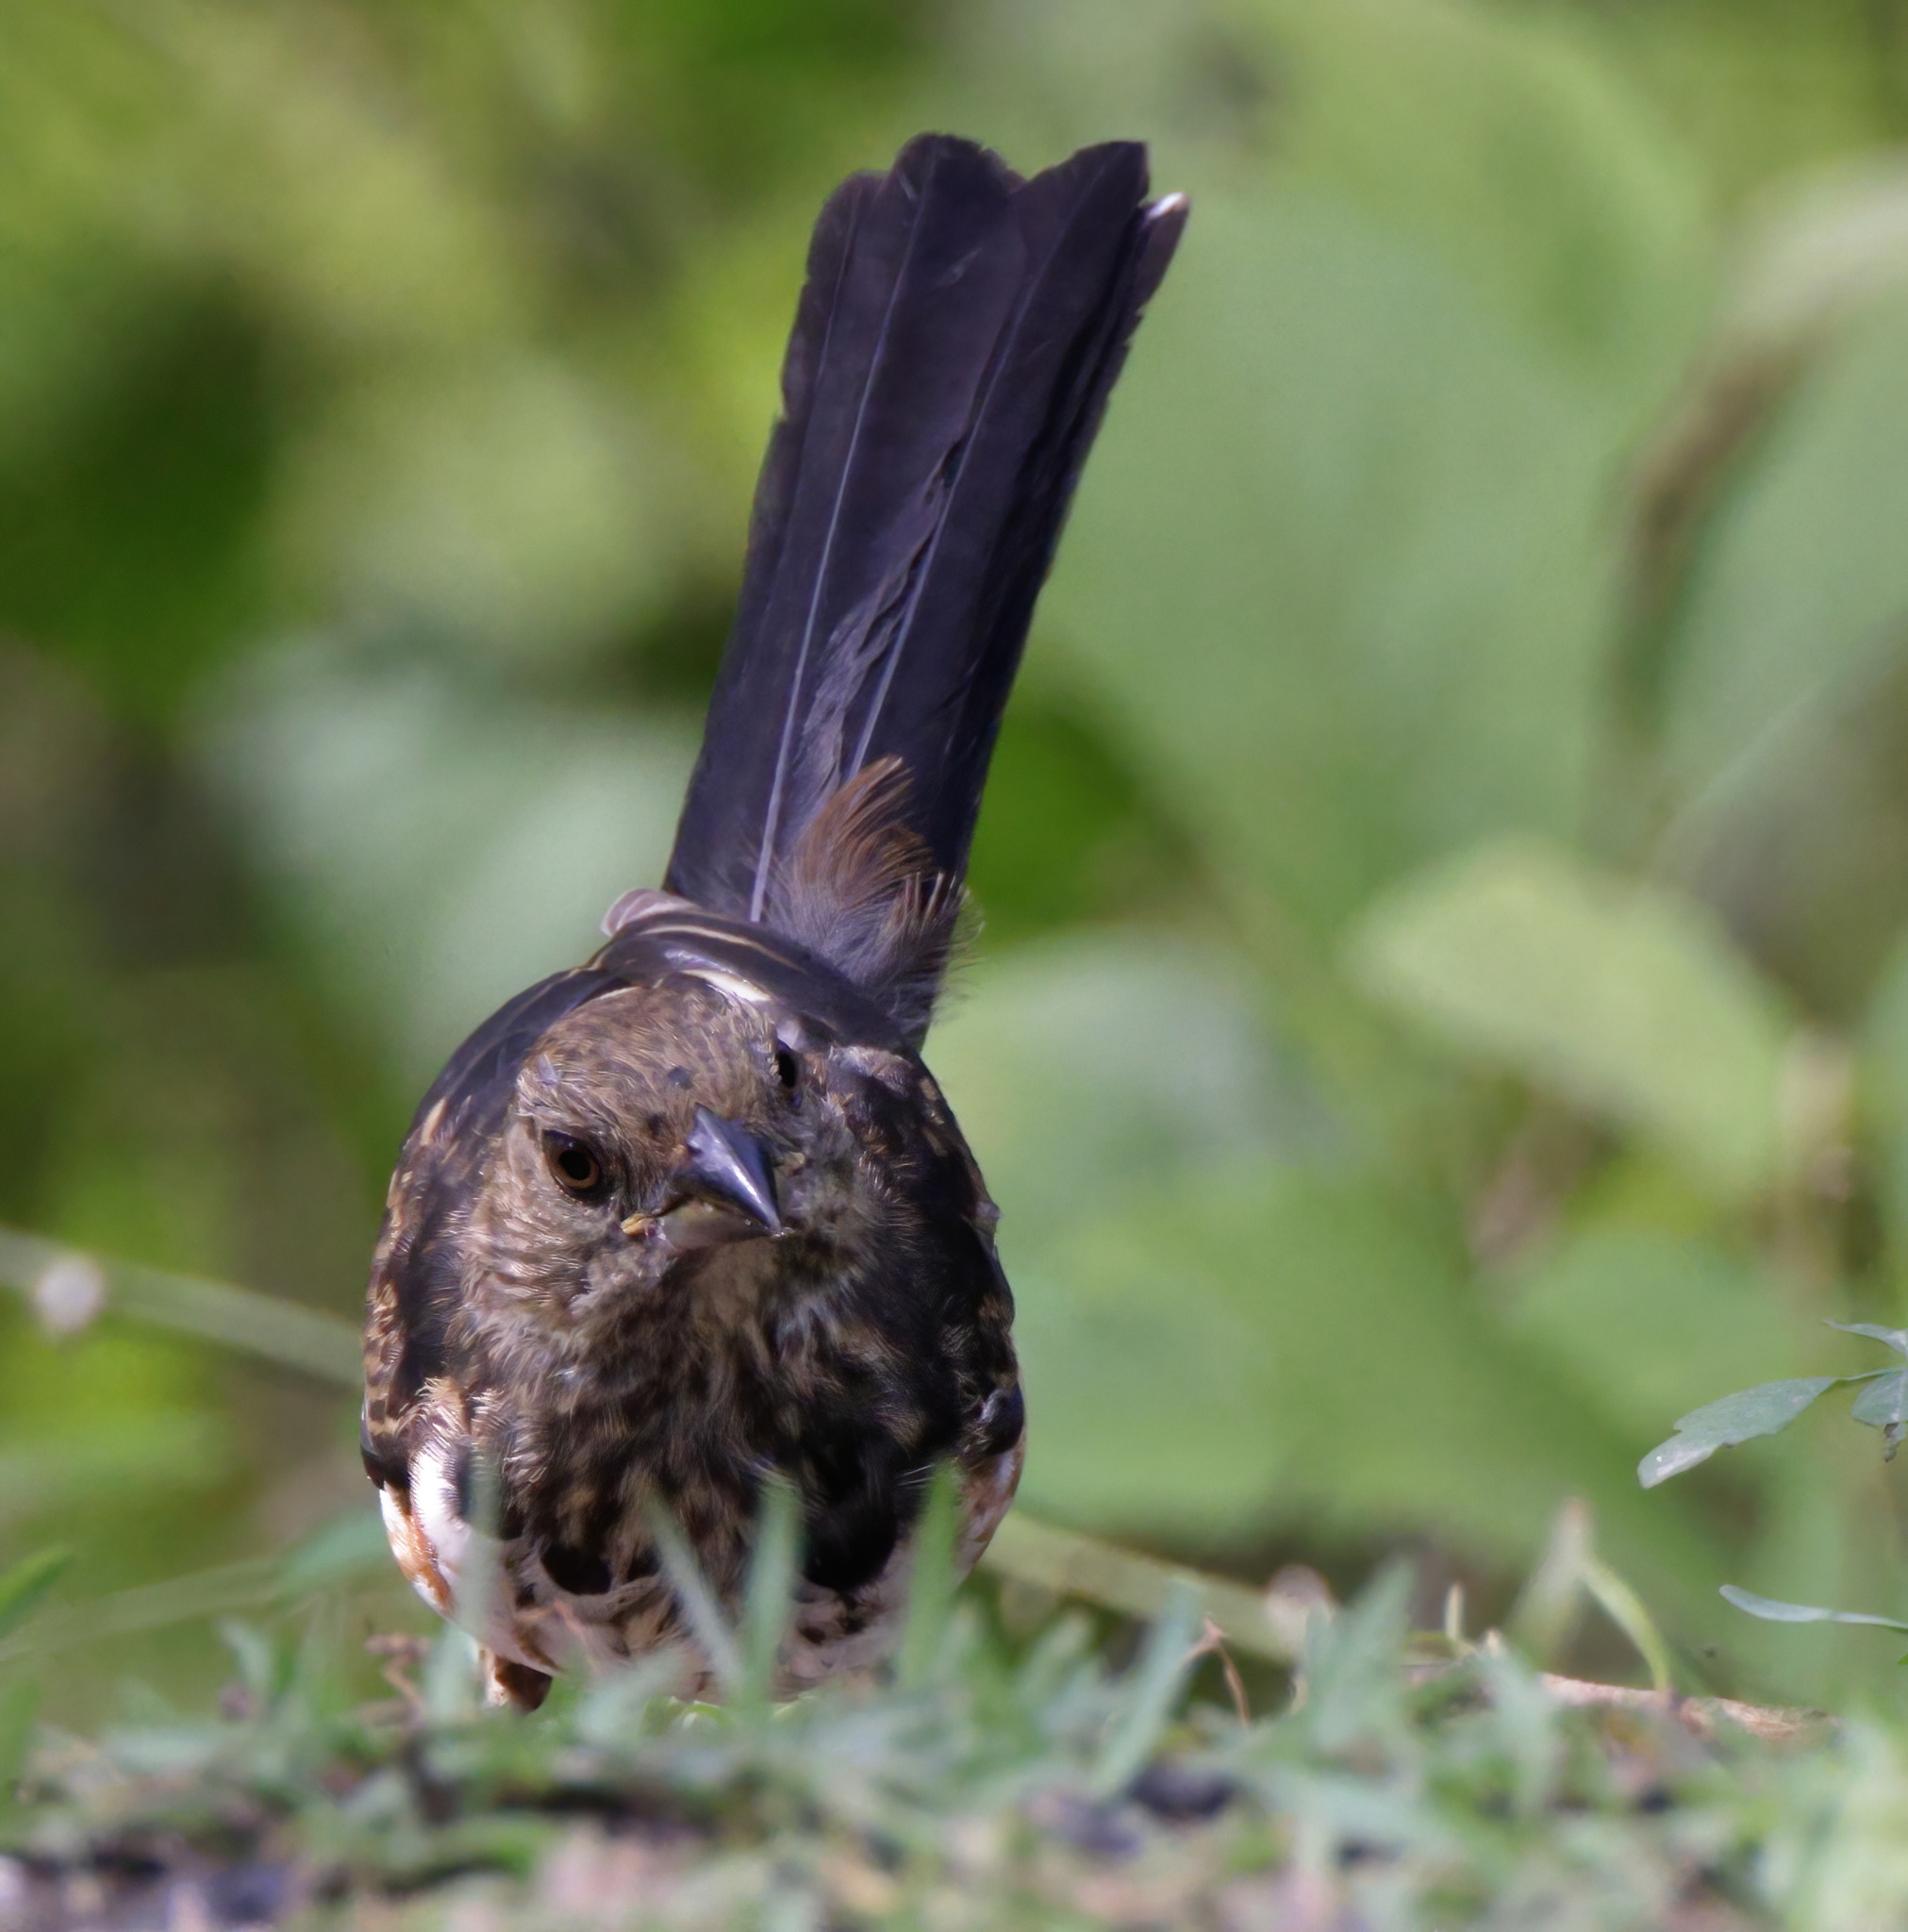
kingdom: Animalia
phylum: Chordata
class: Aves
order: Passeriformes
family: Passerellidae
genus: Pipilo
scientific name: Pipilo erythrophthalmus
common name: Eastern towhee
